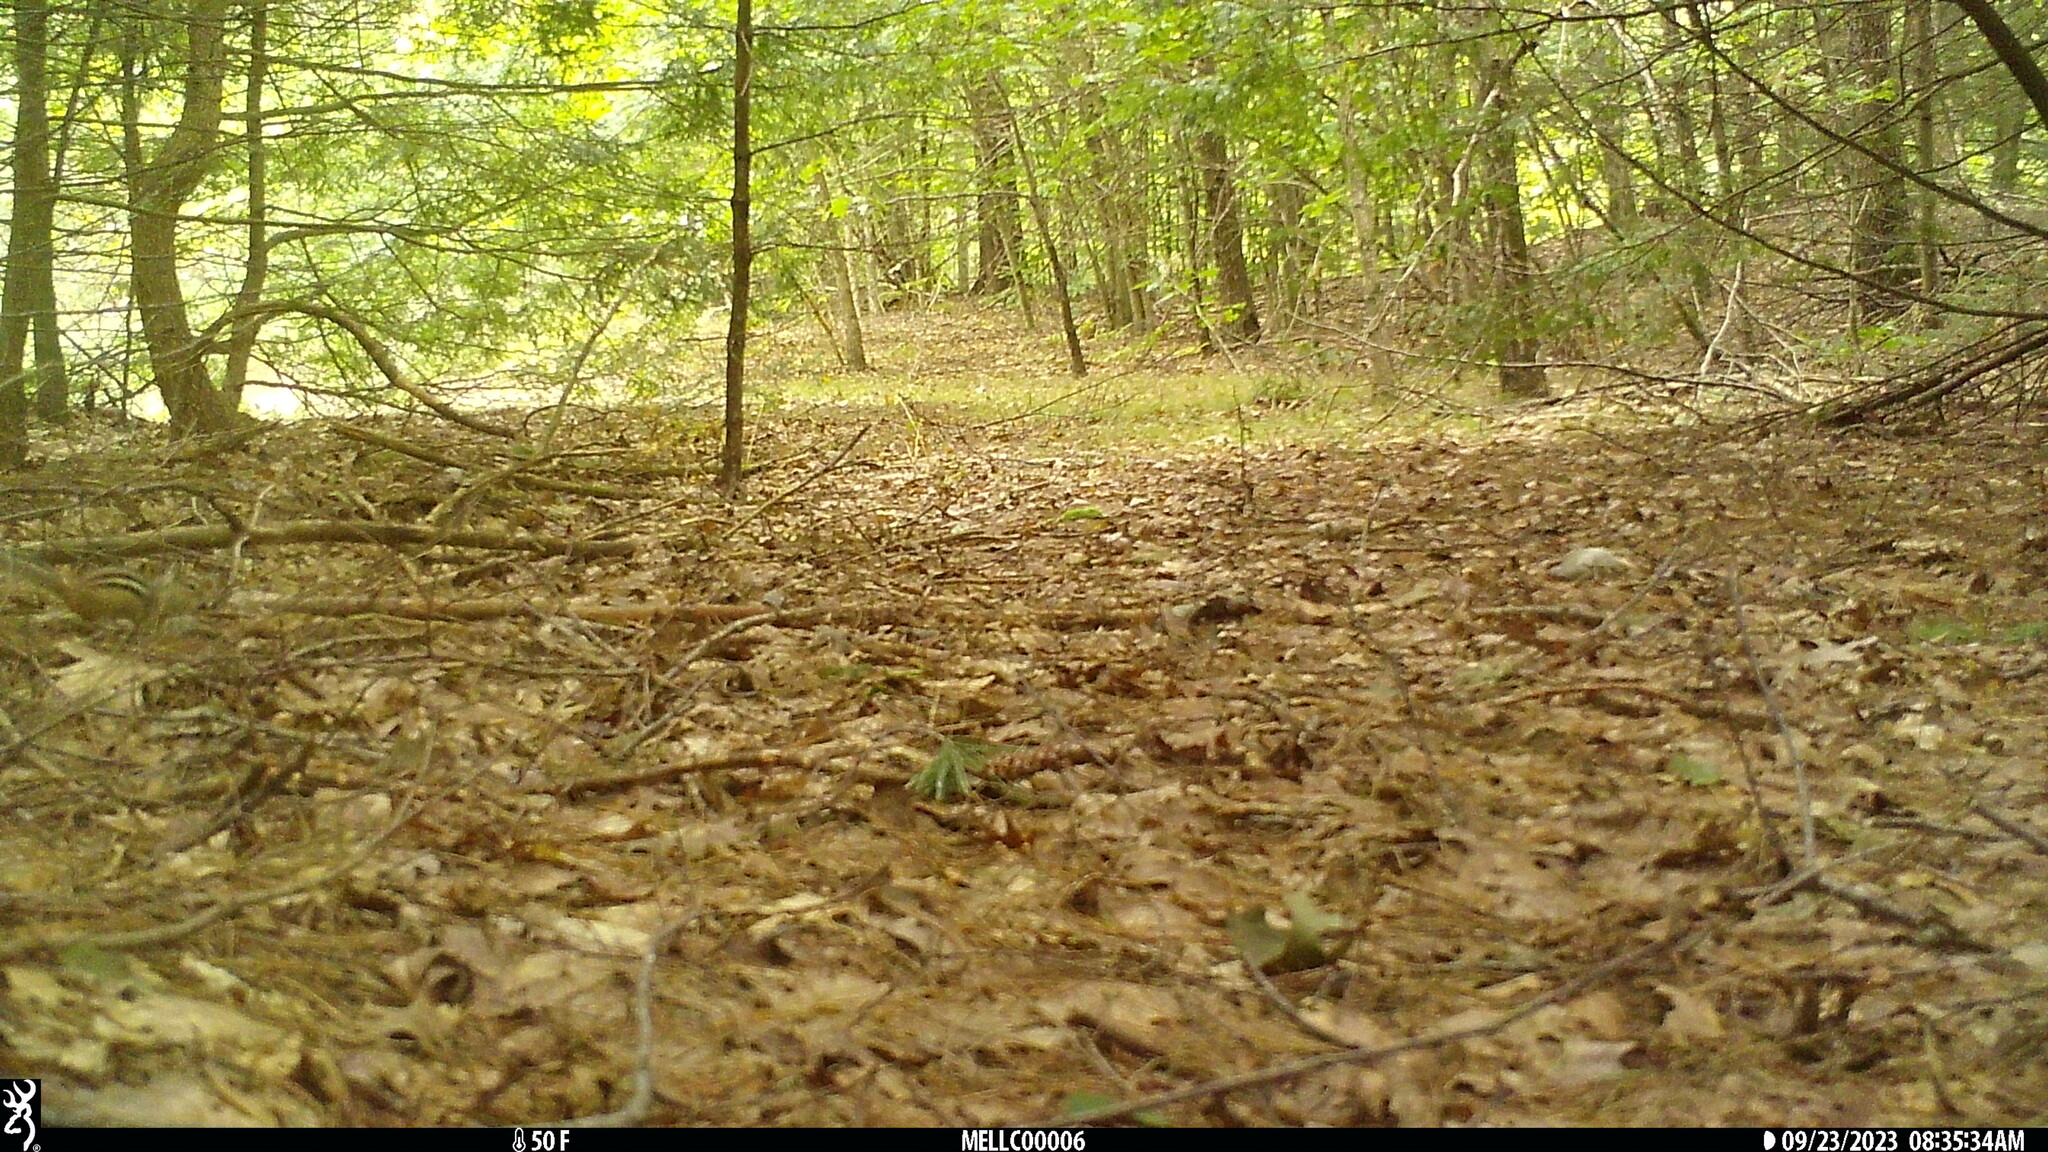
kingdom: Animalia
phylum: Chordata
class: Mammalia
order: Rodentia
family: Sciuridae
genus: Tamias
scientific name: Tamias striatus
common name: Eastern chipmunk
